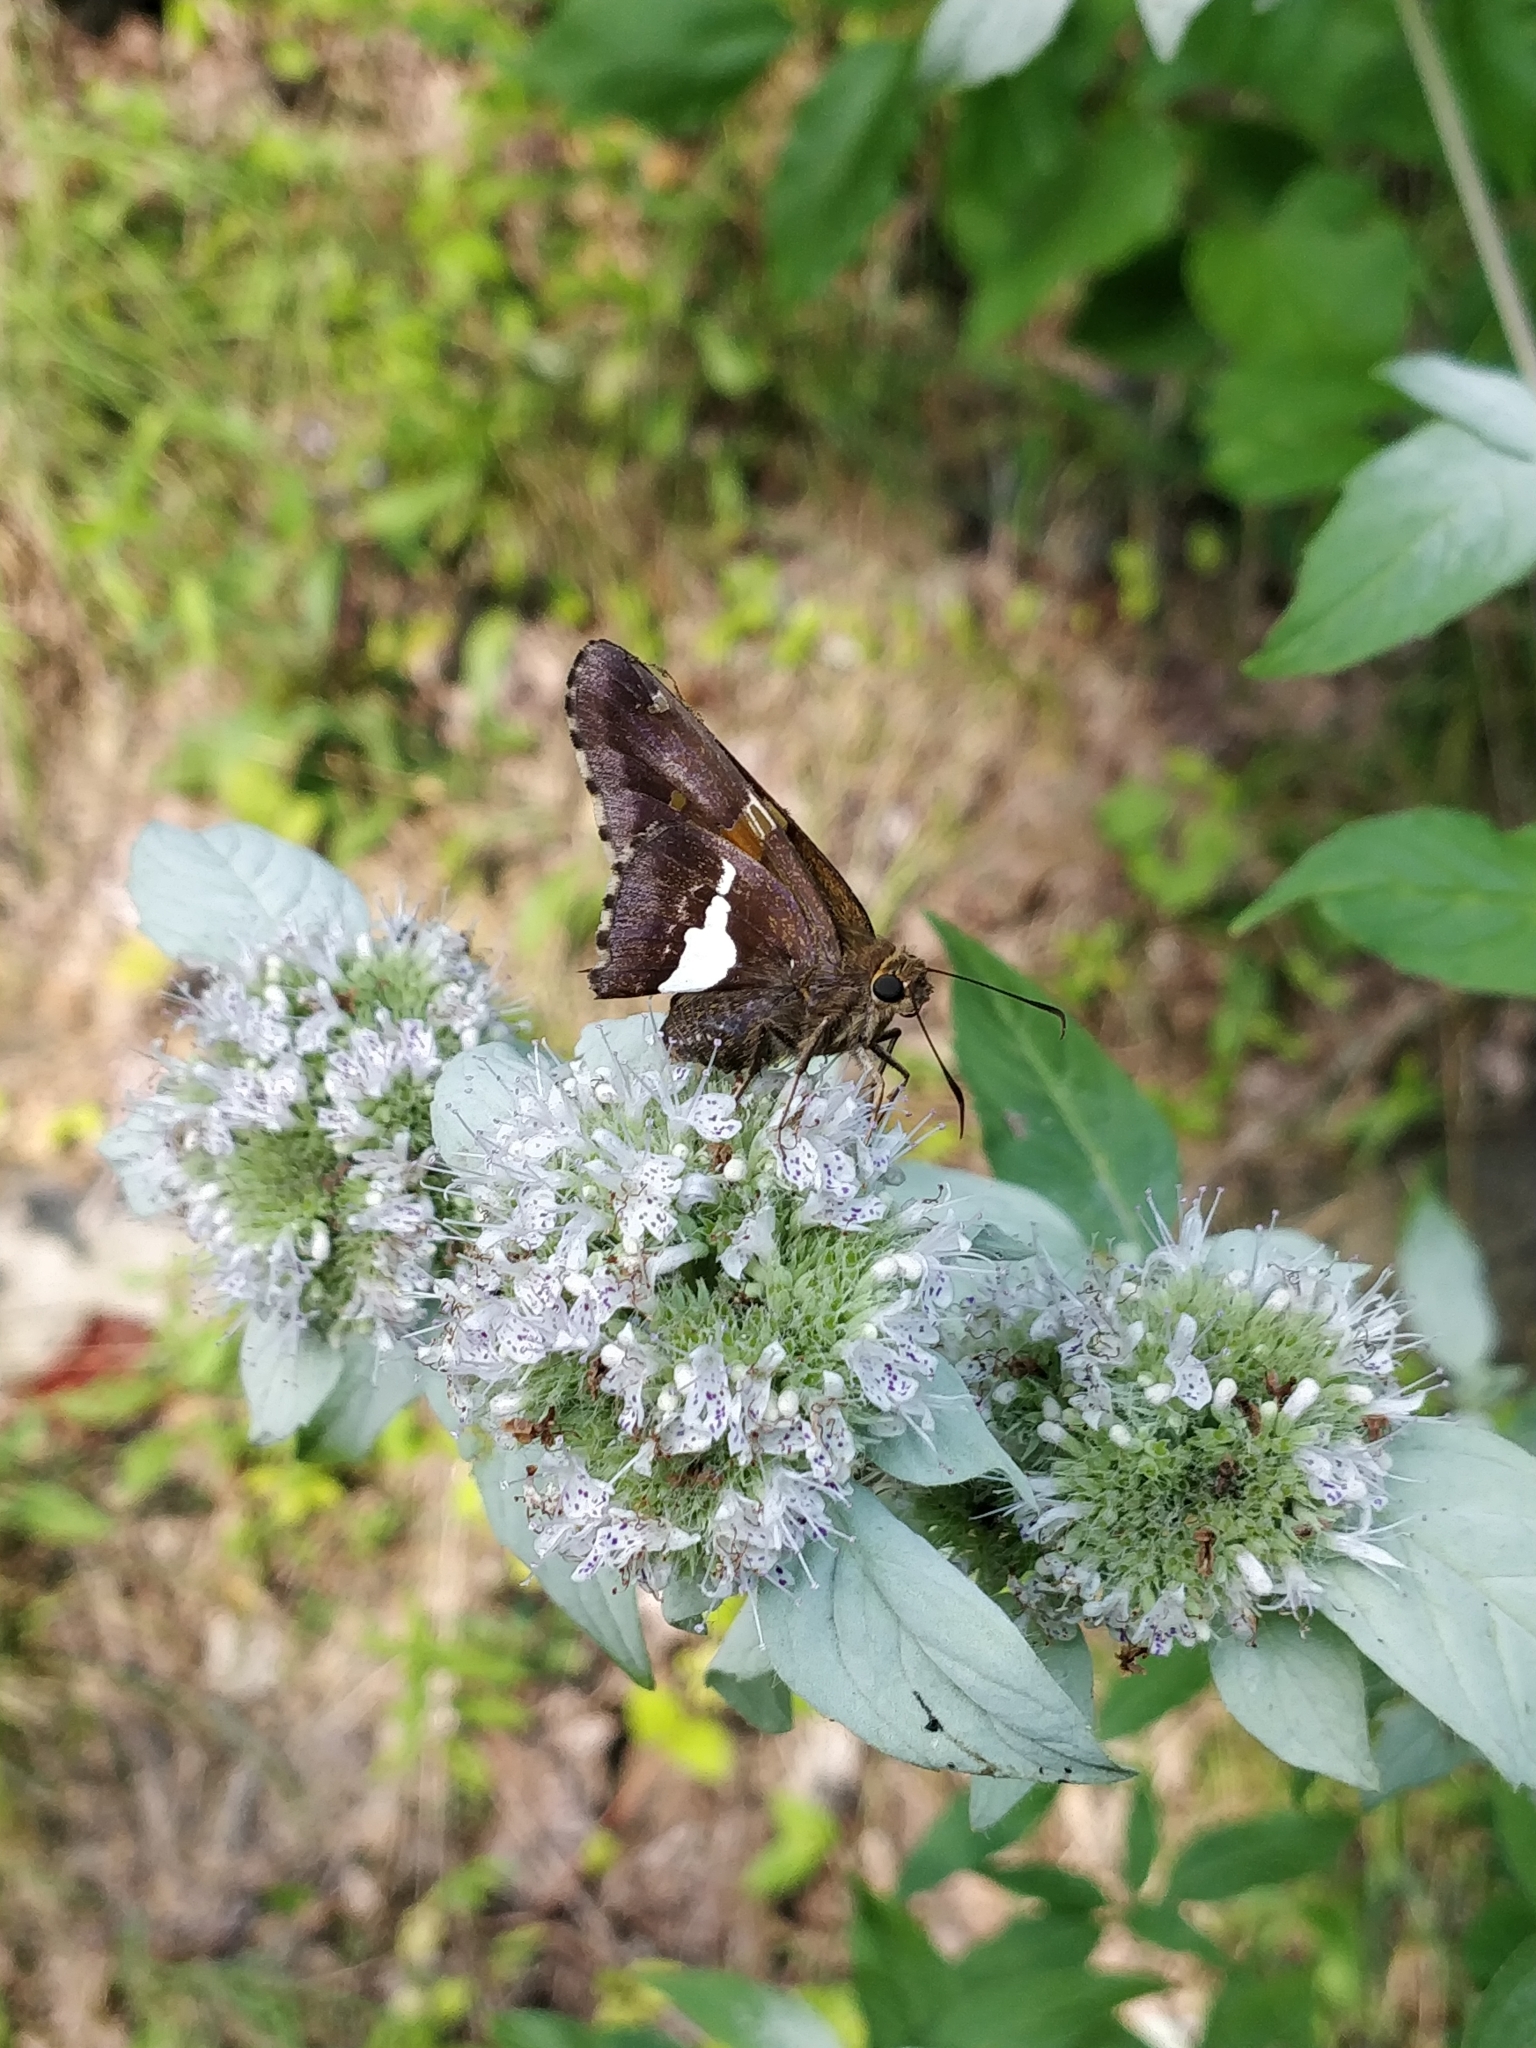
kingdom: Animalia
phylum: Arthropoda
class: Insecta
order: Lepidoptera
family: Hesperiidae
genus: Epargyreus
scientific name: Epargyreus clarus
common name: Silver-spotted skipper
